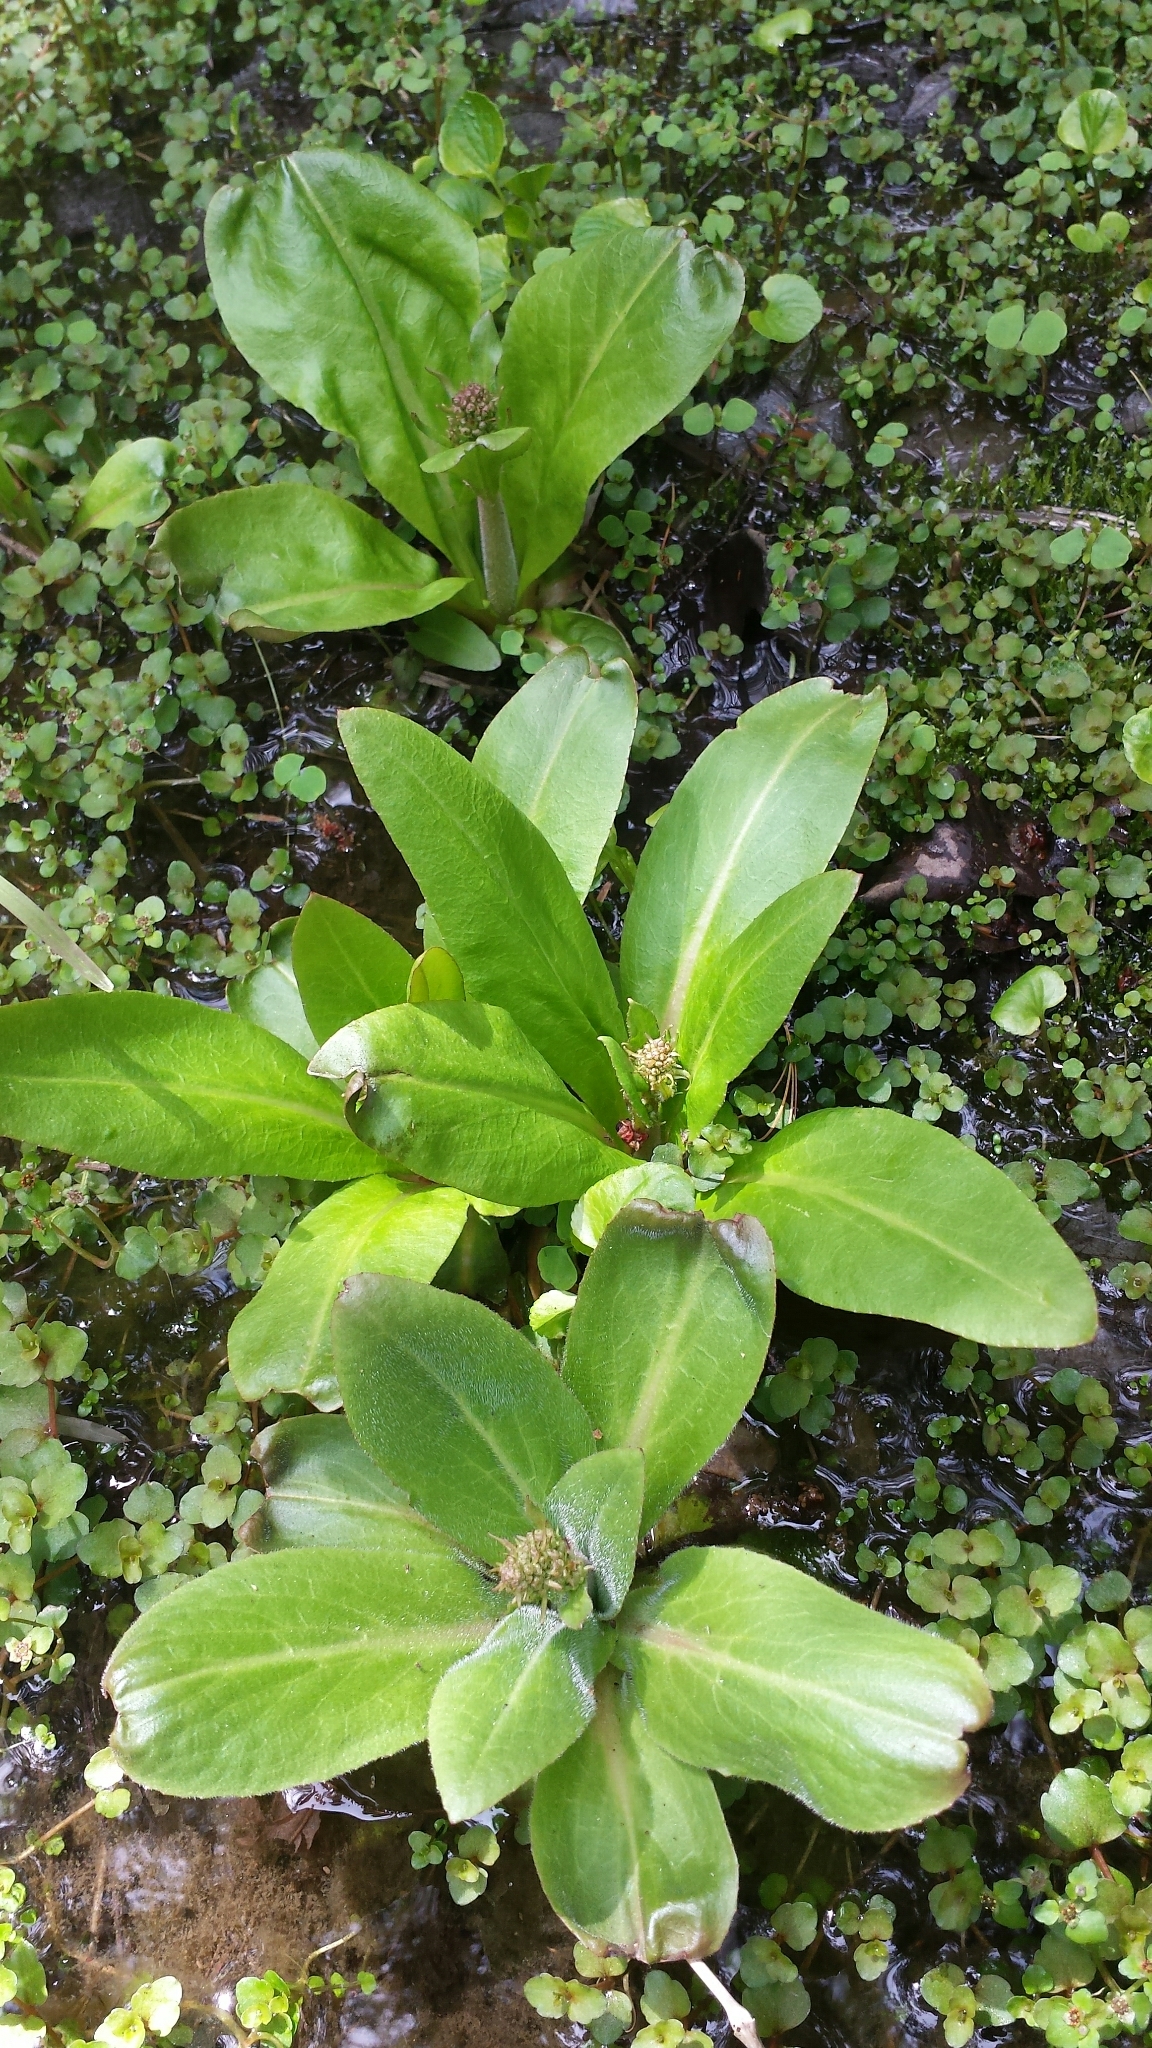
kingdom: Plantae
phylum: Tracheophyta
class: Magnoliopsida
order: Saxifragales
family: Saxifragaceae
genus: Micranthes
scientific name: Micranthes pensylvanica
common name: Marsh saxifrage
